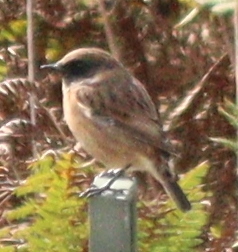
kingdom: Animalia
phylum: Chordata
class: Aves
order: Passeriformes
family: Muscicapidae
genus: Saxicola
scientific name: Saxicola rubicola
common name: European stonechat
